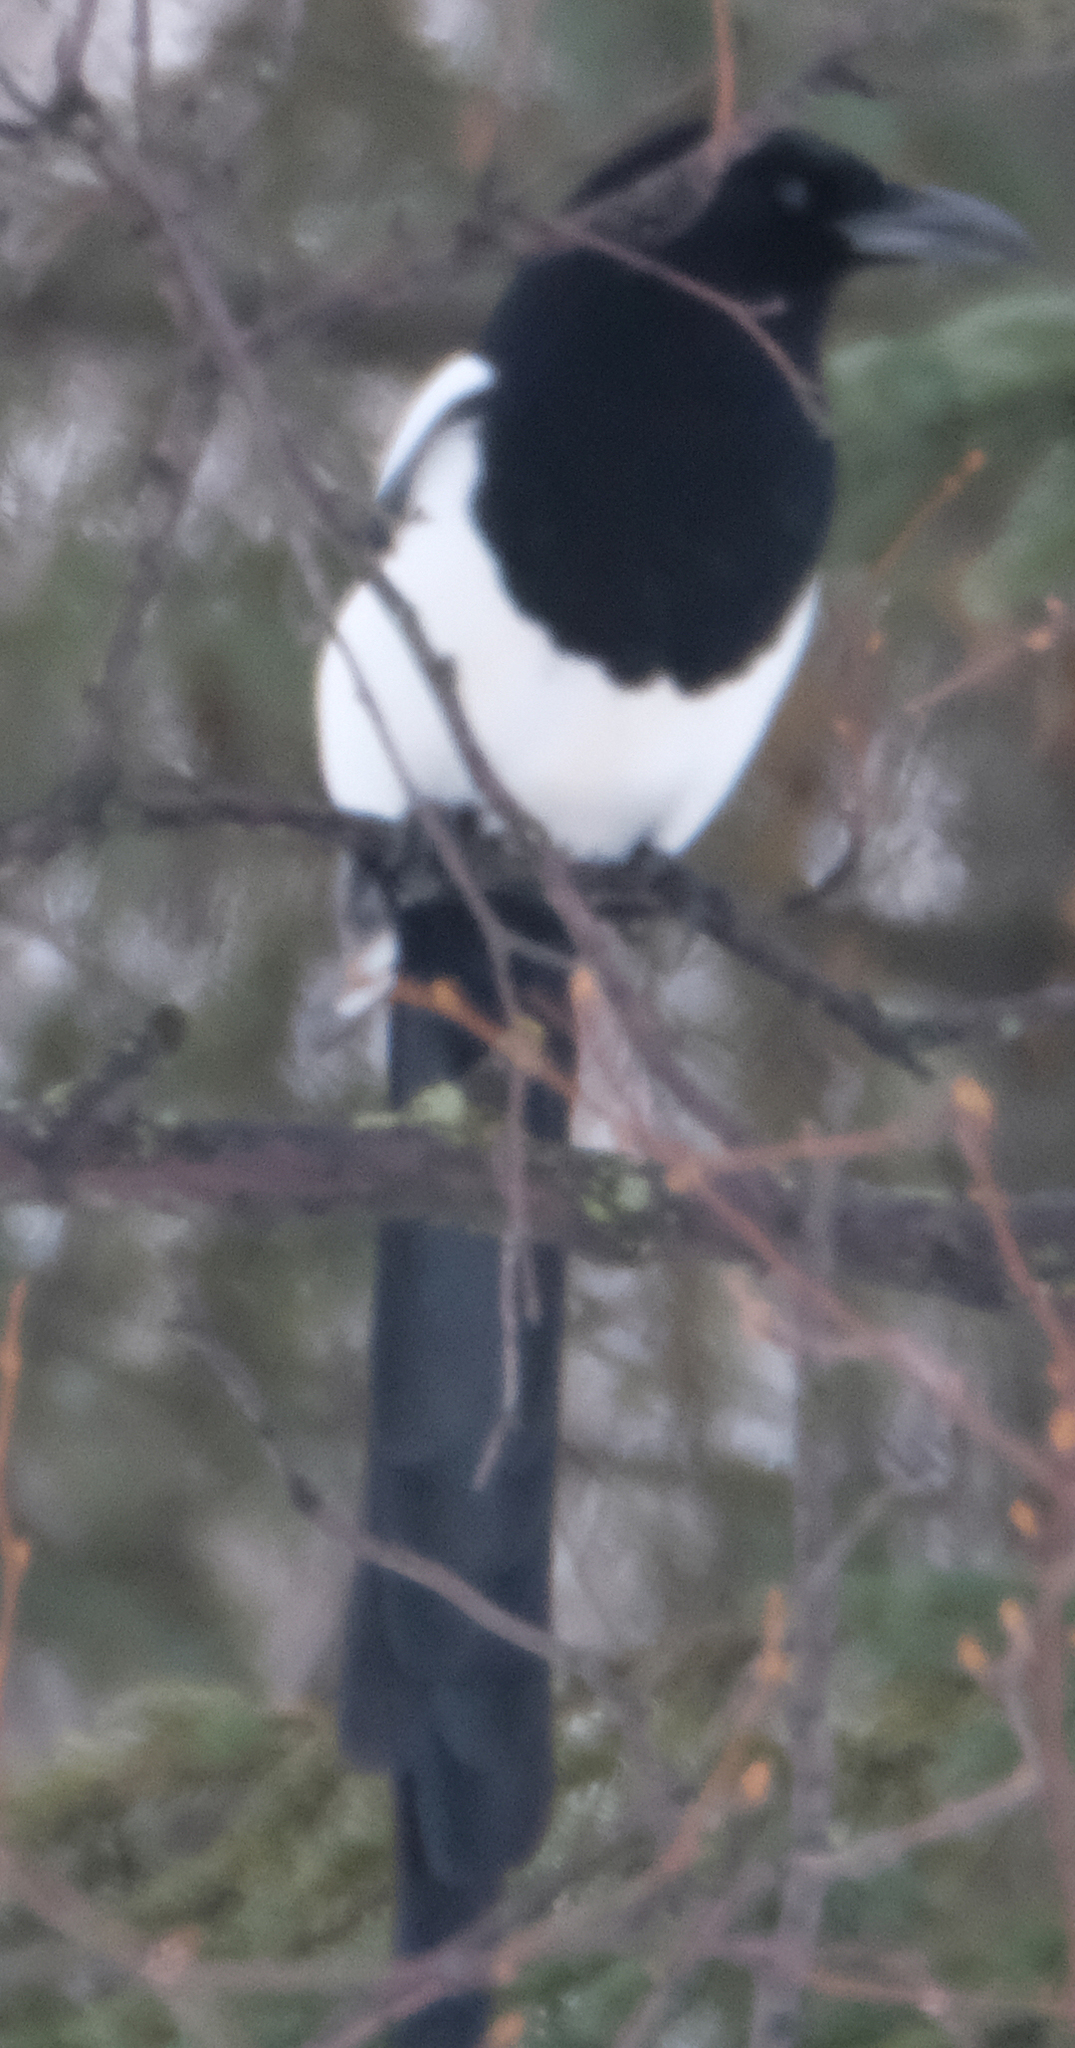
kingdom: Animalia
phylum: Chordata
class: Aves
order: Passeriformes
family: Corvidae
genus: Pica
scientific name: Pica hudsonia
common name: Black-billed magpie
